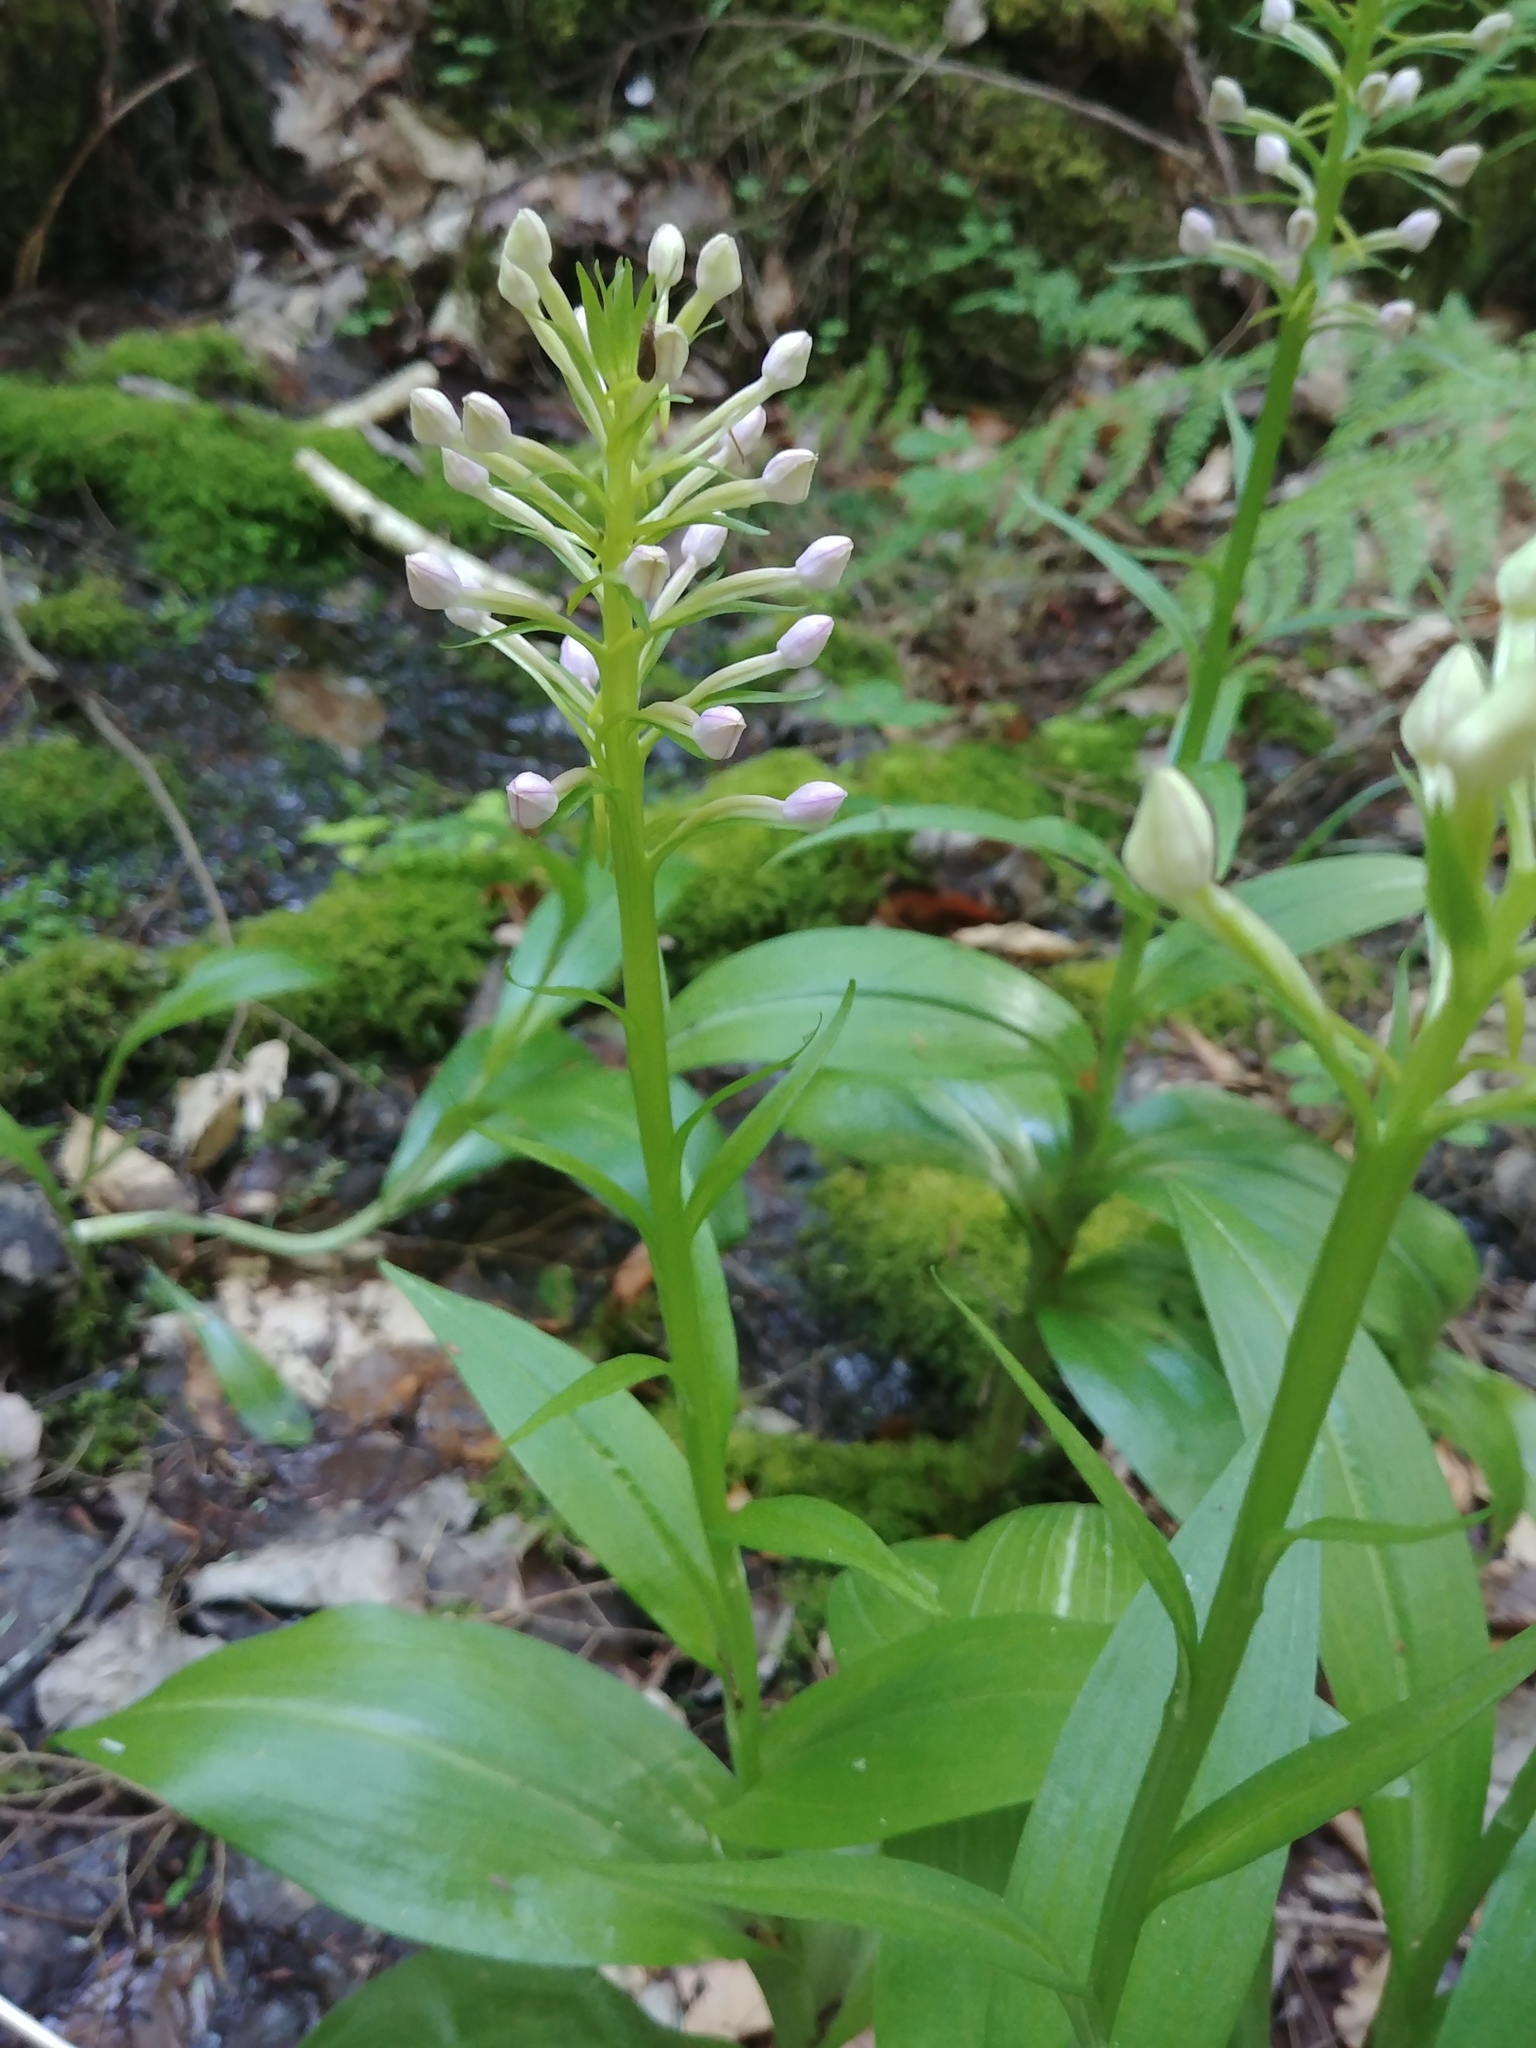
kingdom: Plantae
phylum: Tracheophyta
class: Liliopsida
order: Asparagales
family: Orchidaceae
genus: Platanthera
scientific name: Platanthera grandiflora
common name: Greater purple fringed orchid
